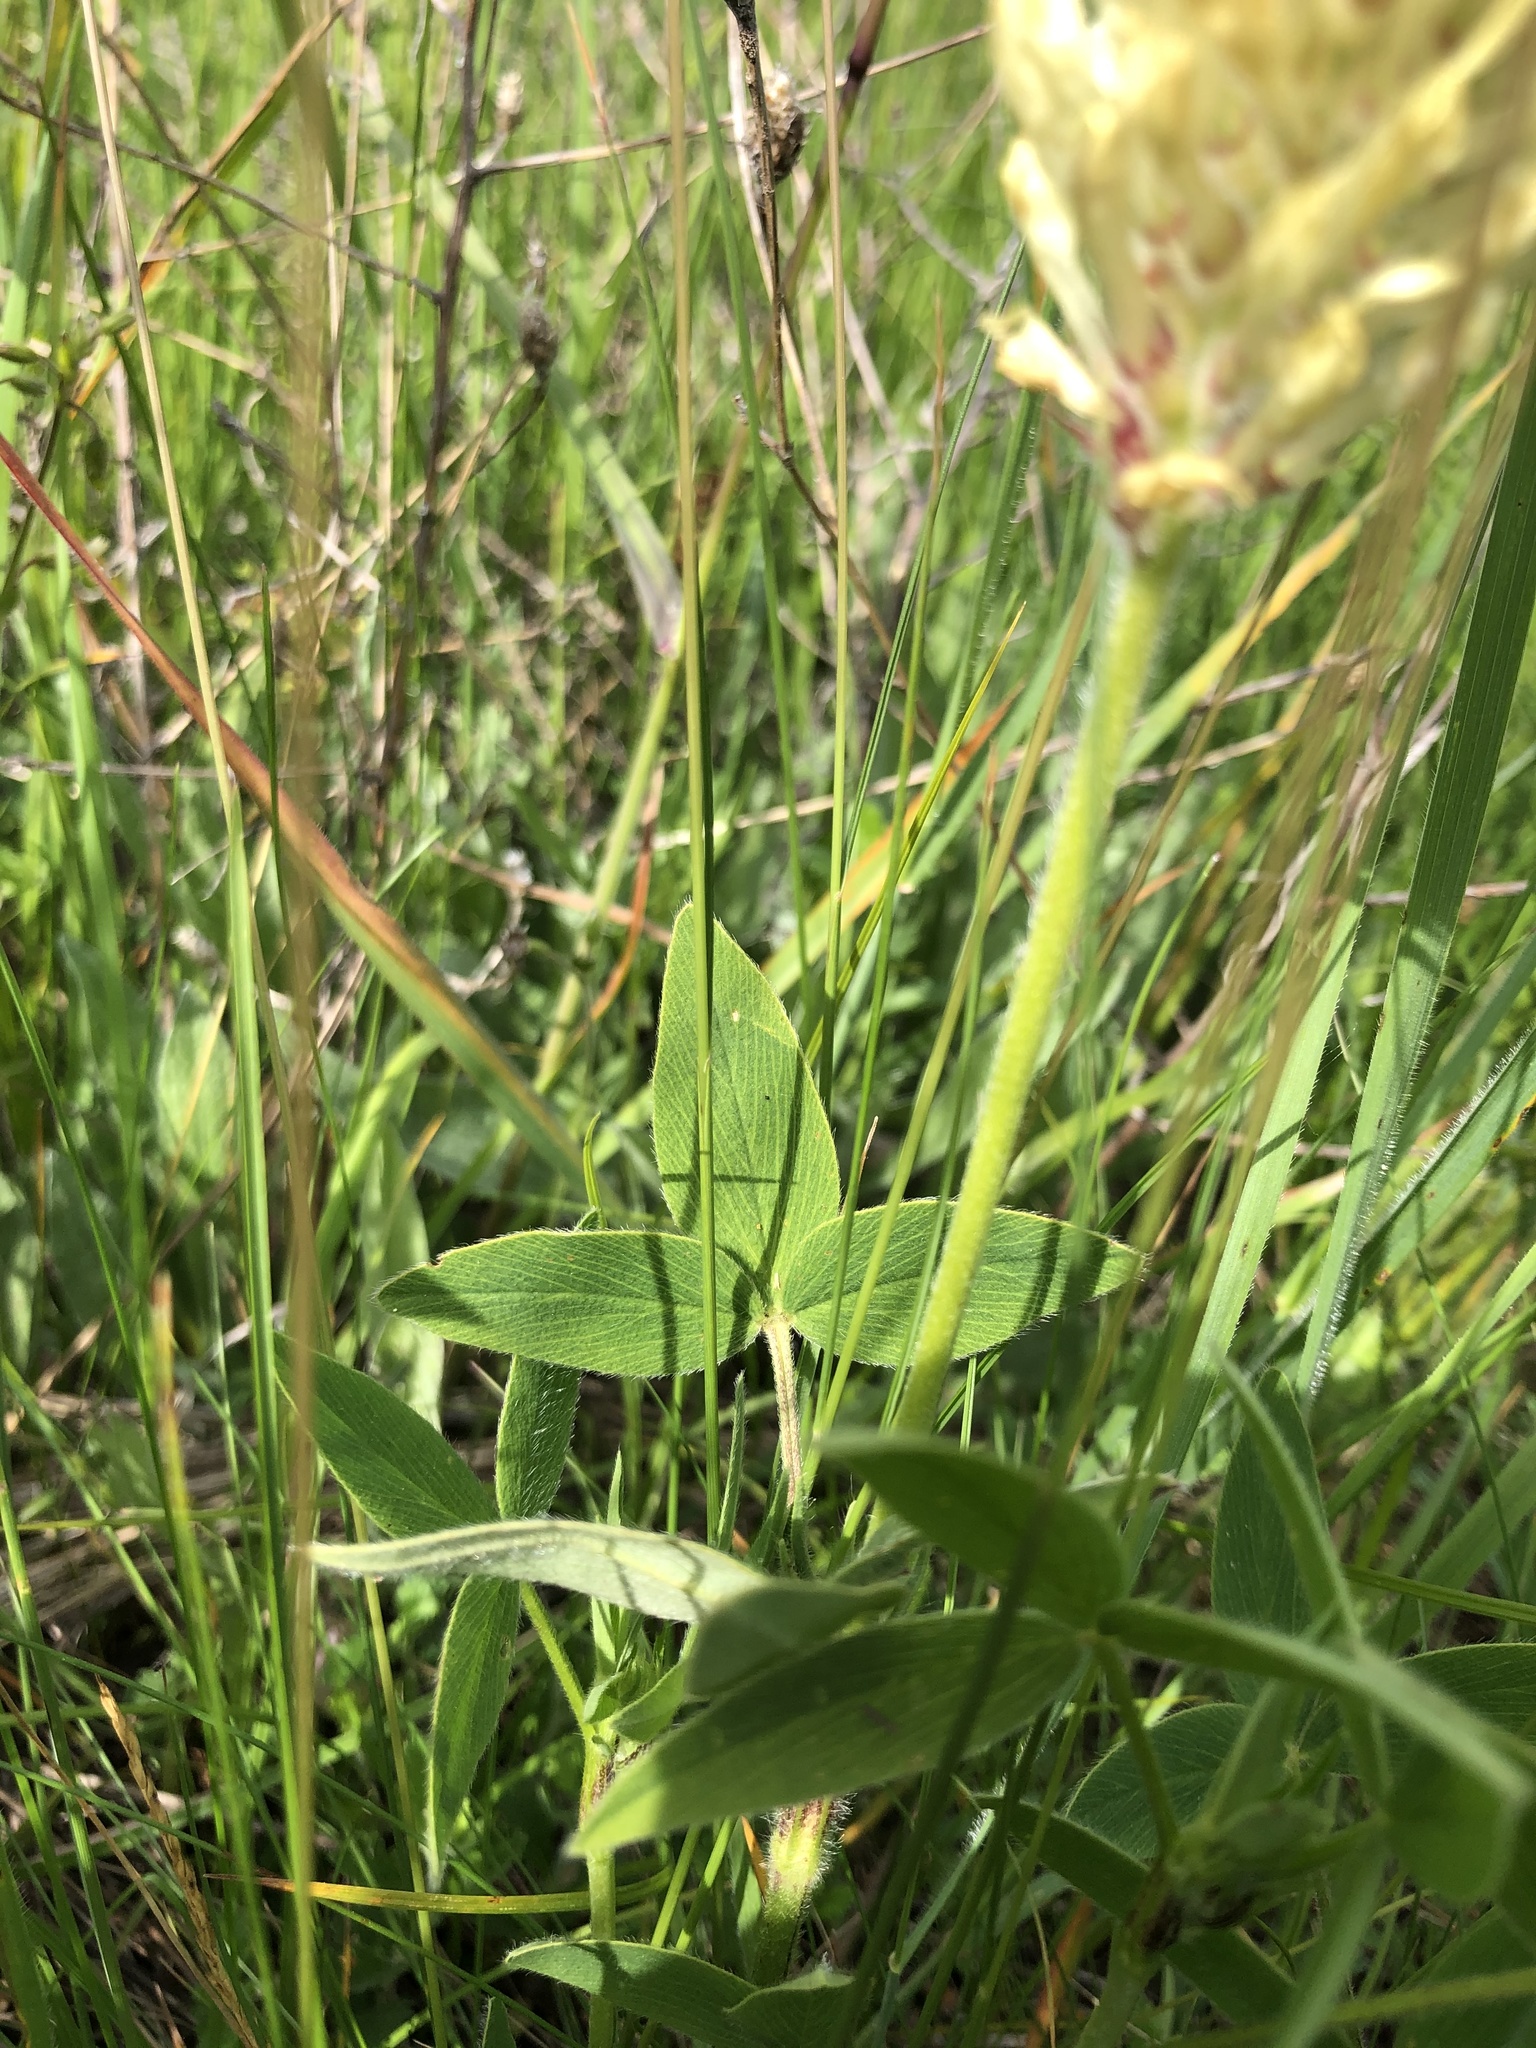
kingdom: Plantae
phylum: Tracheophyta
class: Magnoliopsida
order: Fabales
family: Fabaceae
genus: Trifolium
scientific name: Trifolium pannonicum
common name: Hungarian clover
